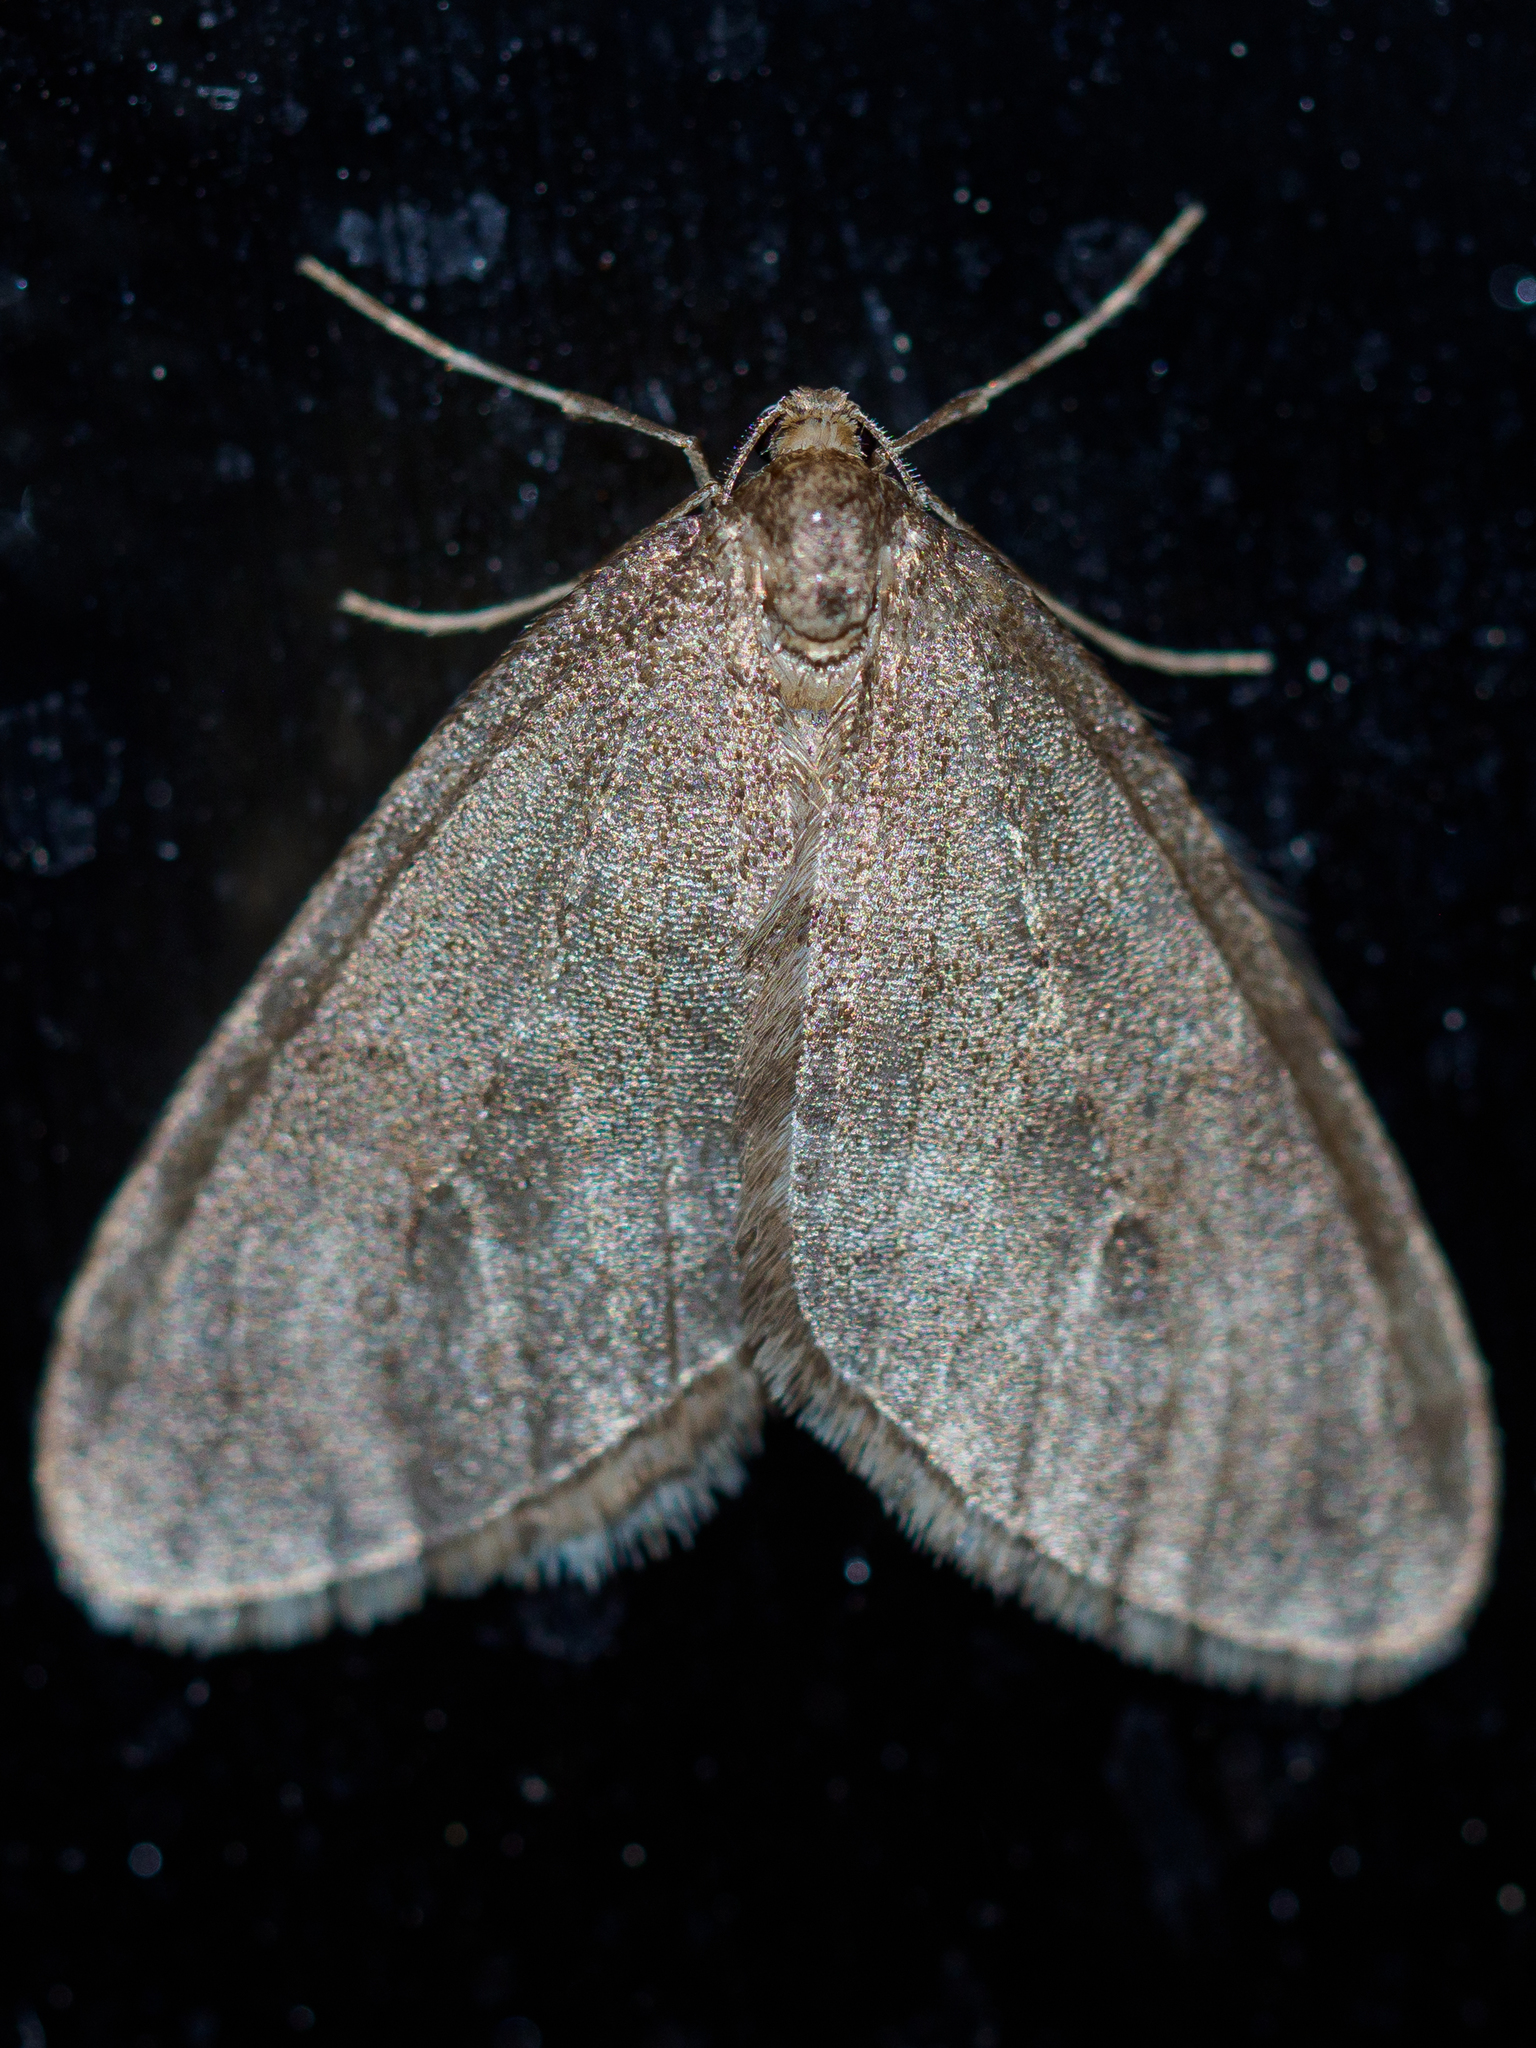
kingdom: Animalia
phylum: Arthropoda
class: Insecta
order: Lepidoptera
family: Geometridae
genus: Operophtera
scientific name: Operophtera brumata
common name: Winter moth
